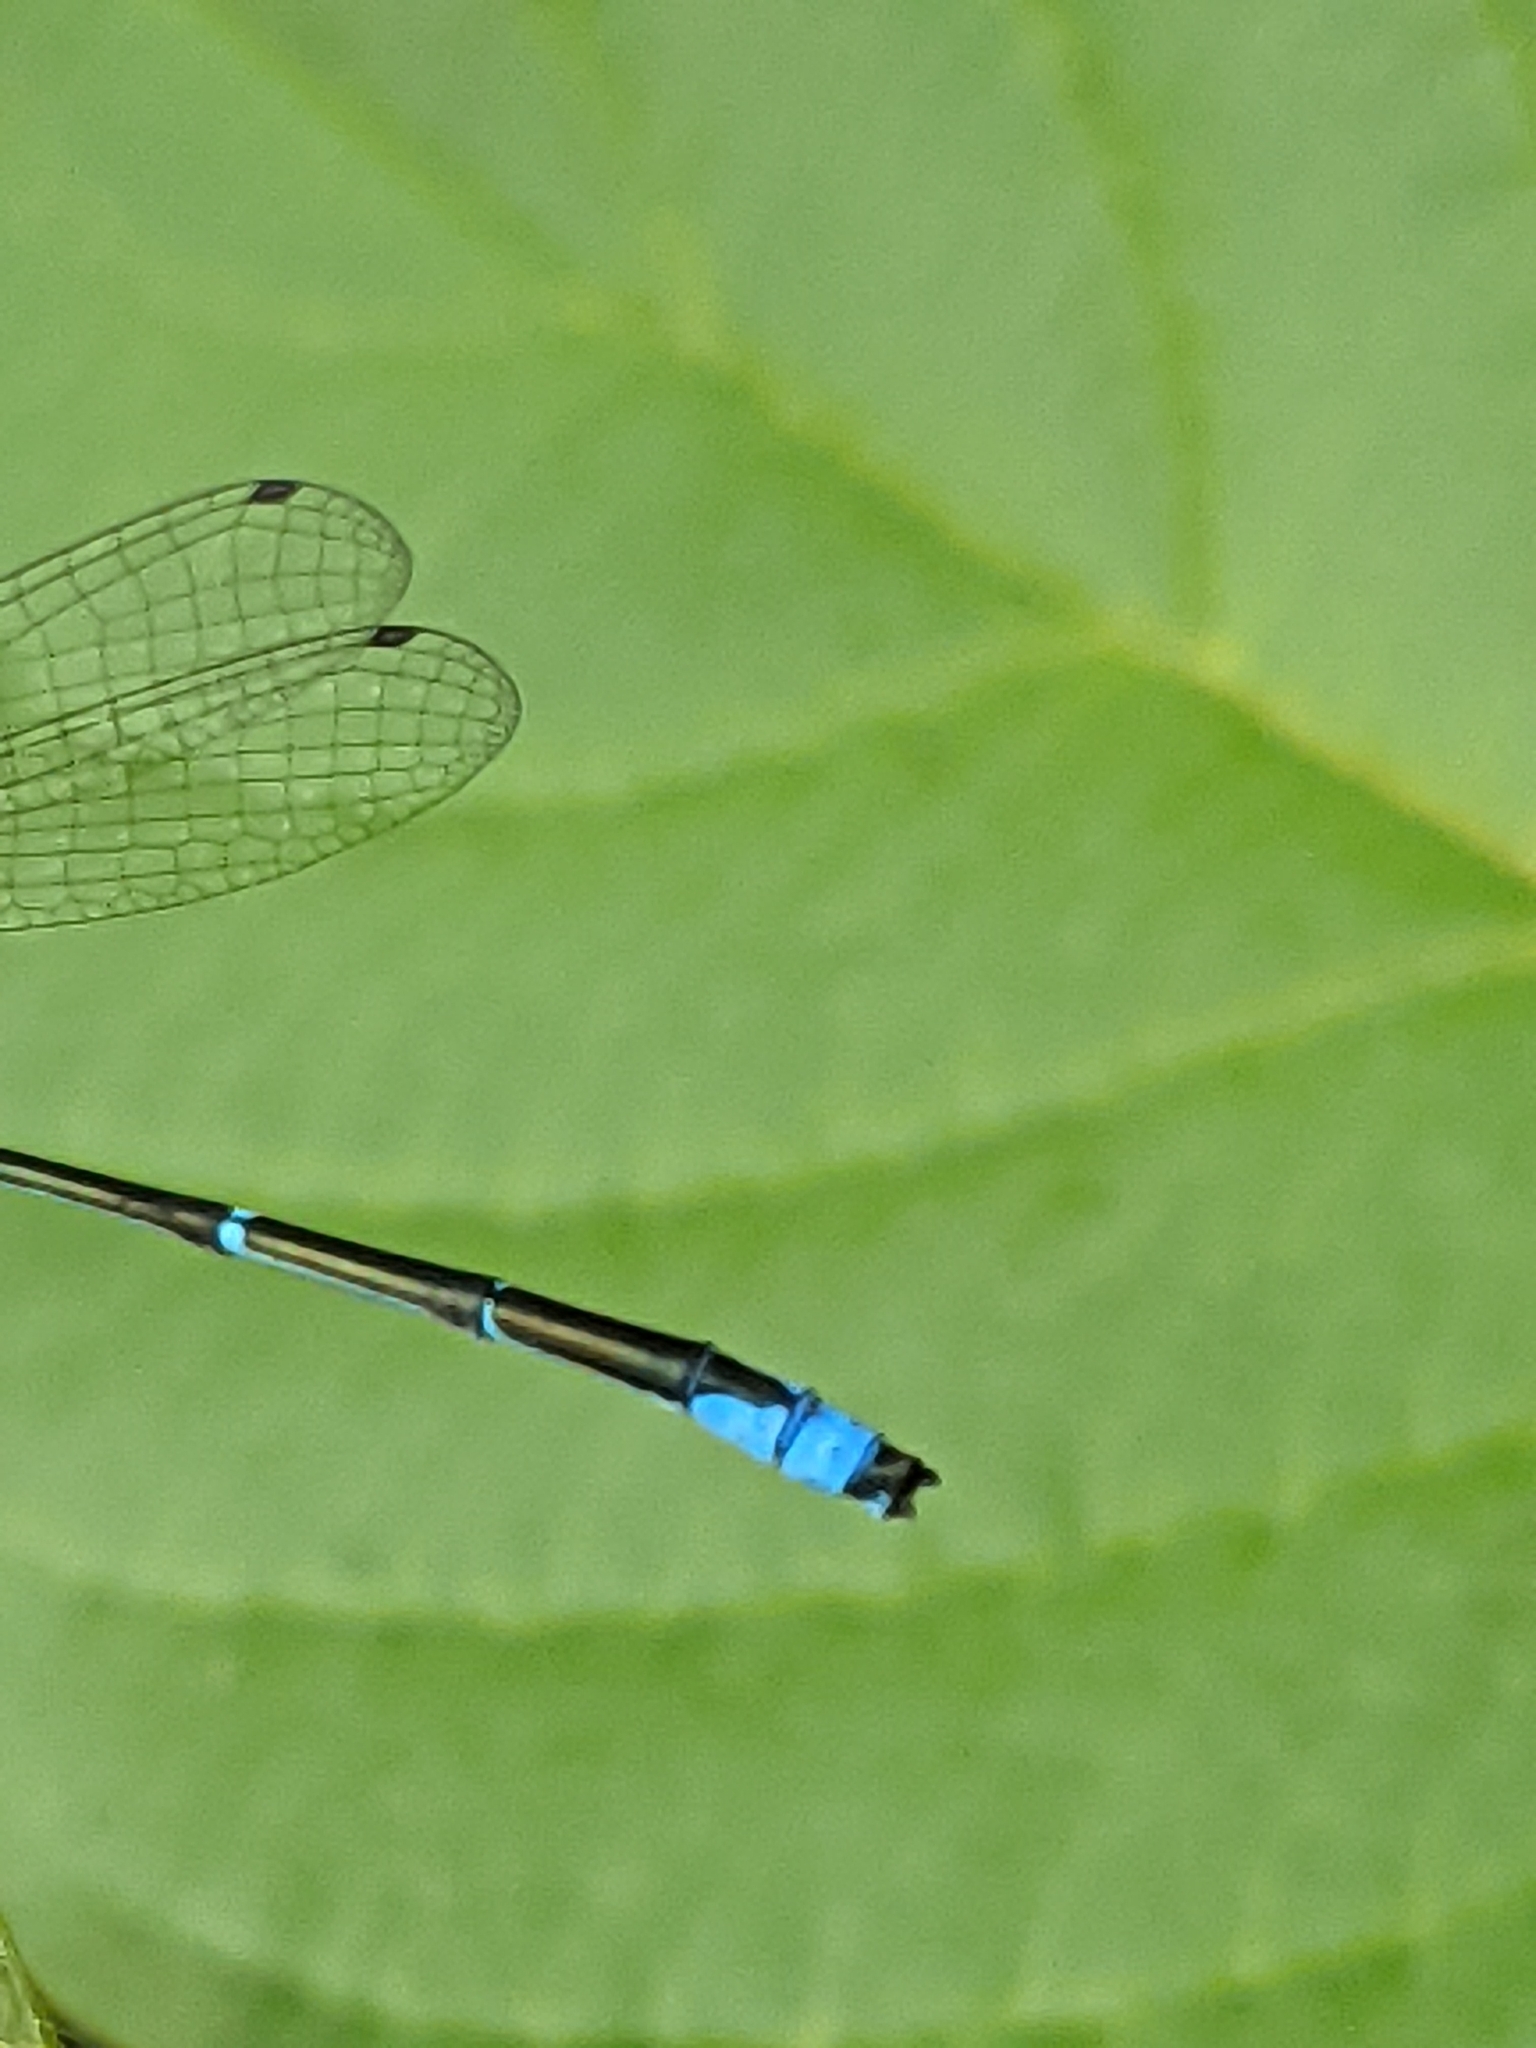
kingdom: Animalia
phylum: Arthropoda
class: Insecta
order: Odonata
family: Coenagrionidae
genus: Enallagma
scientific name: Enallagma exsulans
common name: Stream bluet
